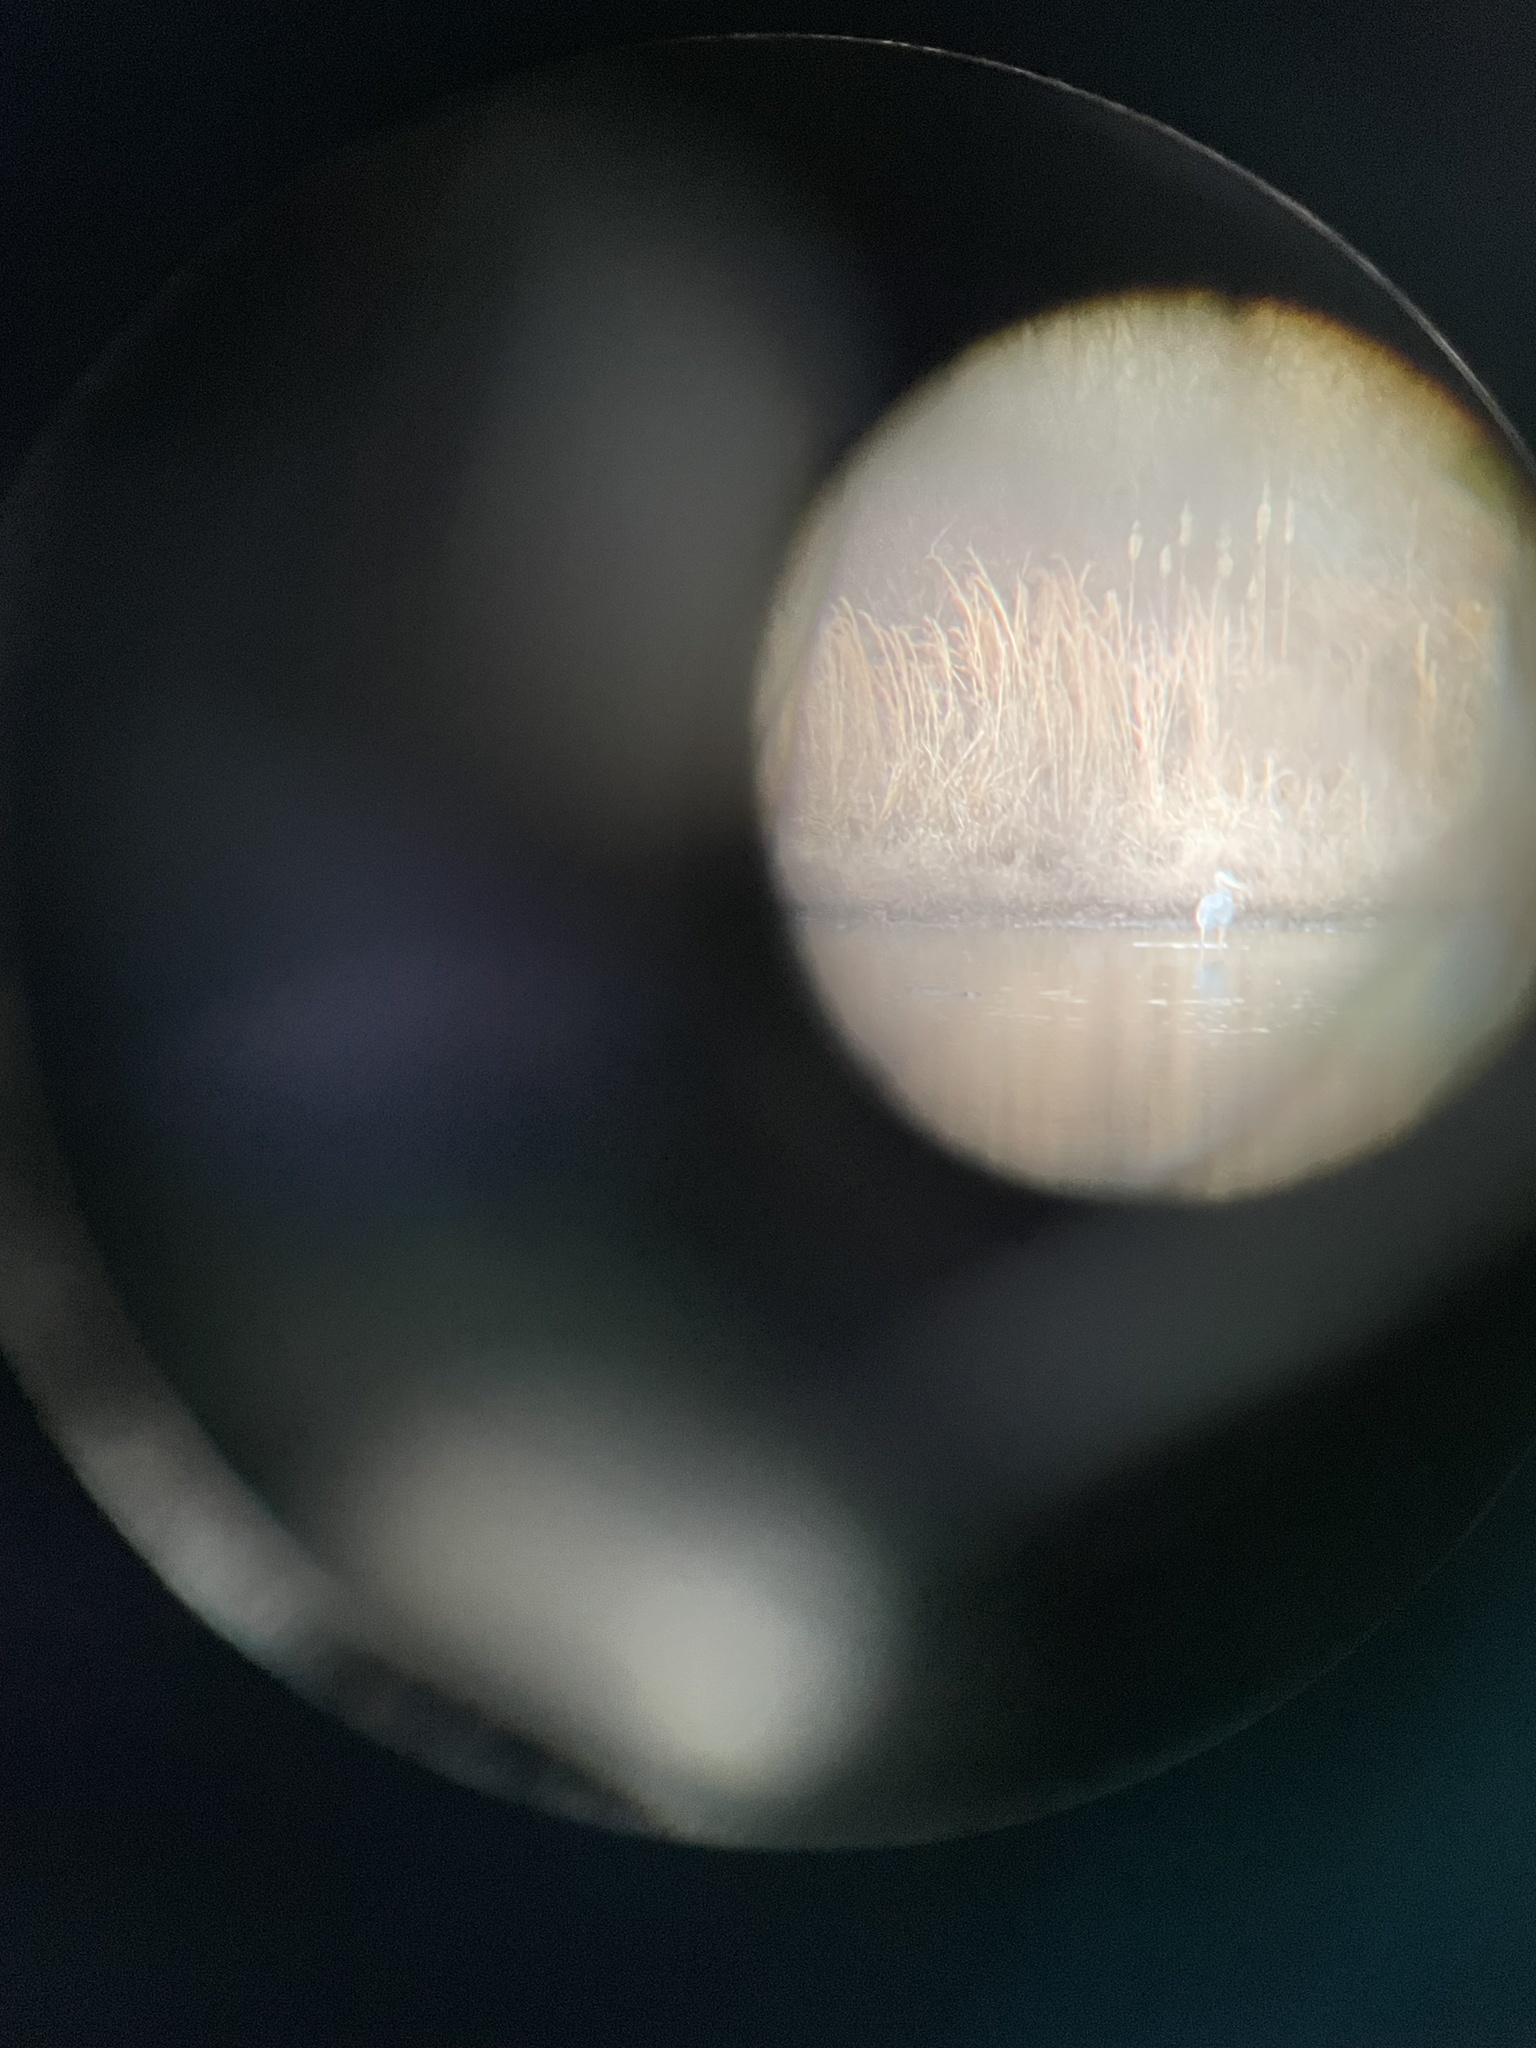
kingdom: Animalia
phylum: Chordata
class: Aves
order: Pelecaniformes
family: Ardeidae
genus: Ardea
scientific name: Ardea herodias
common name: Great blue heron
